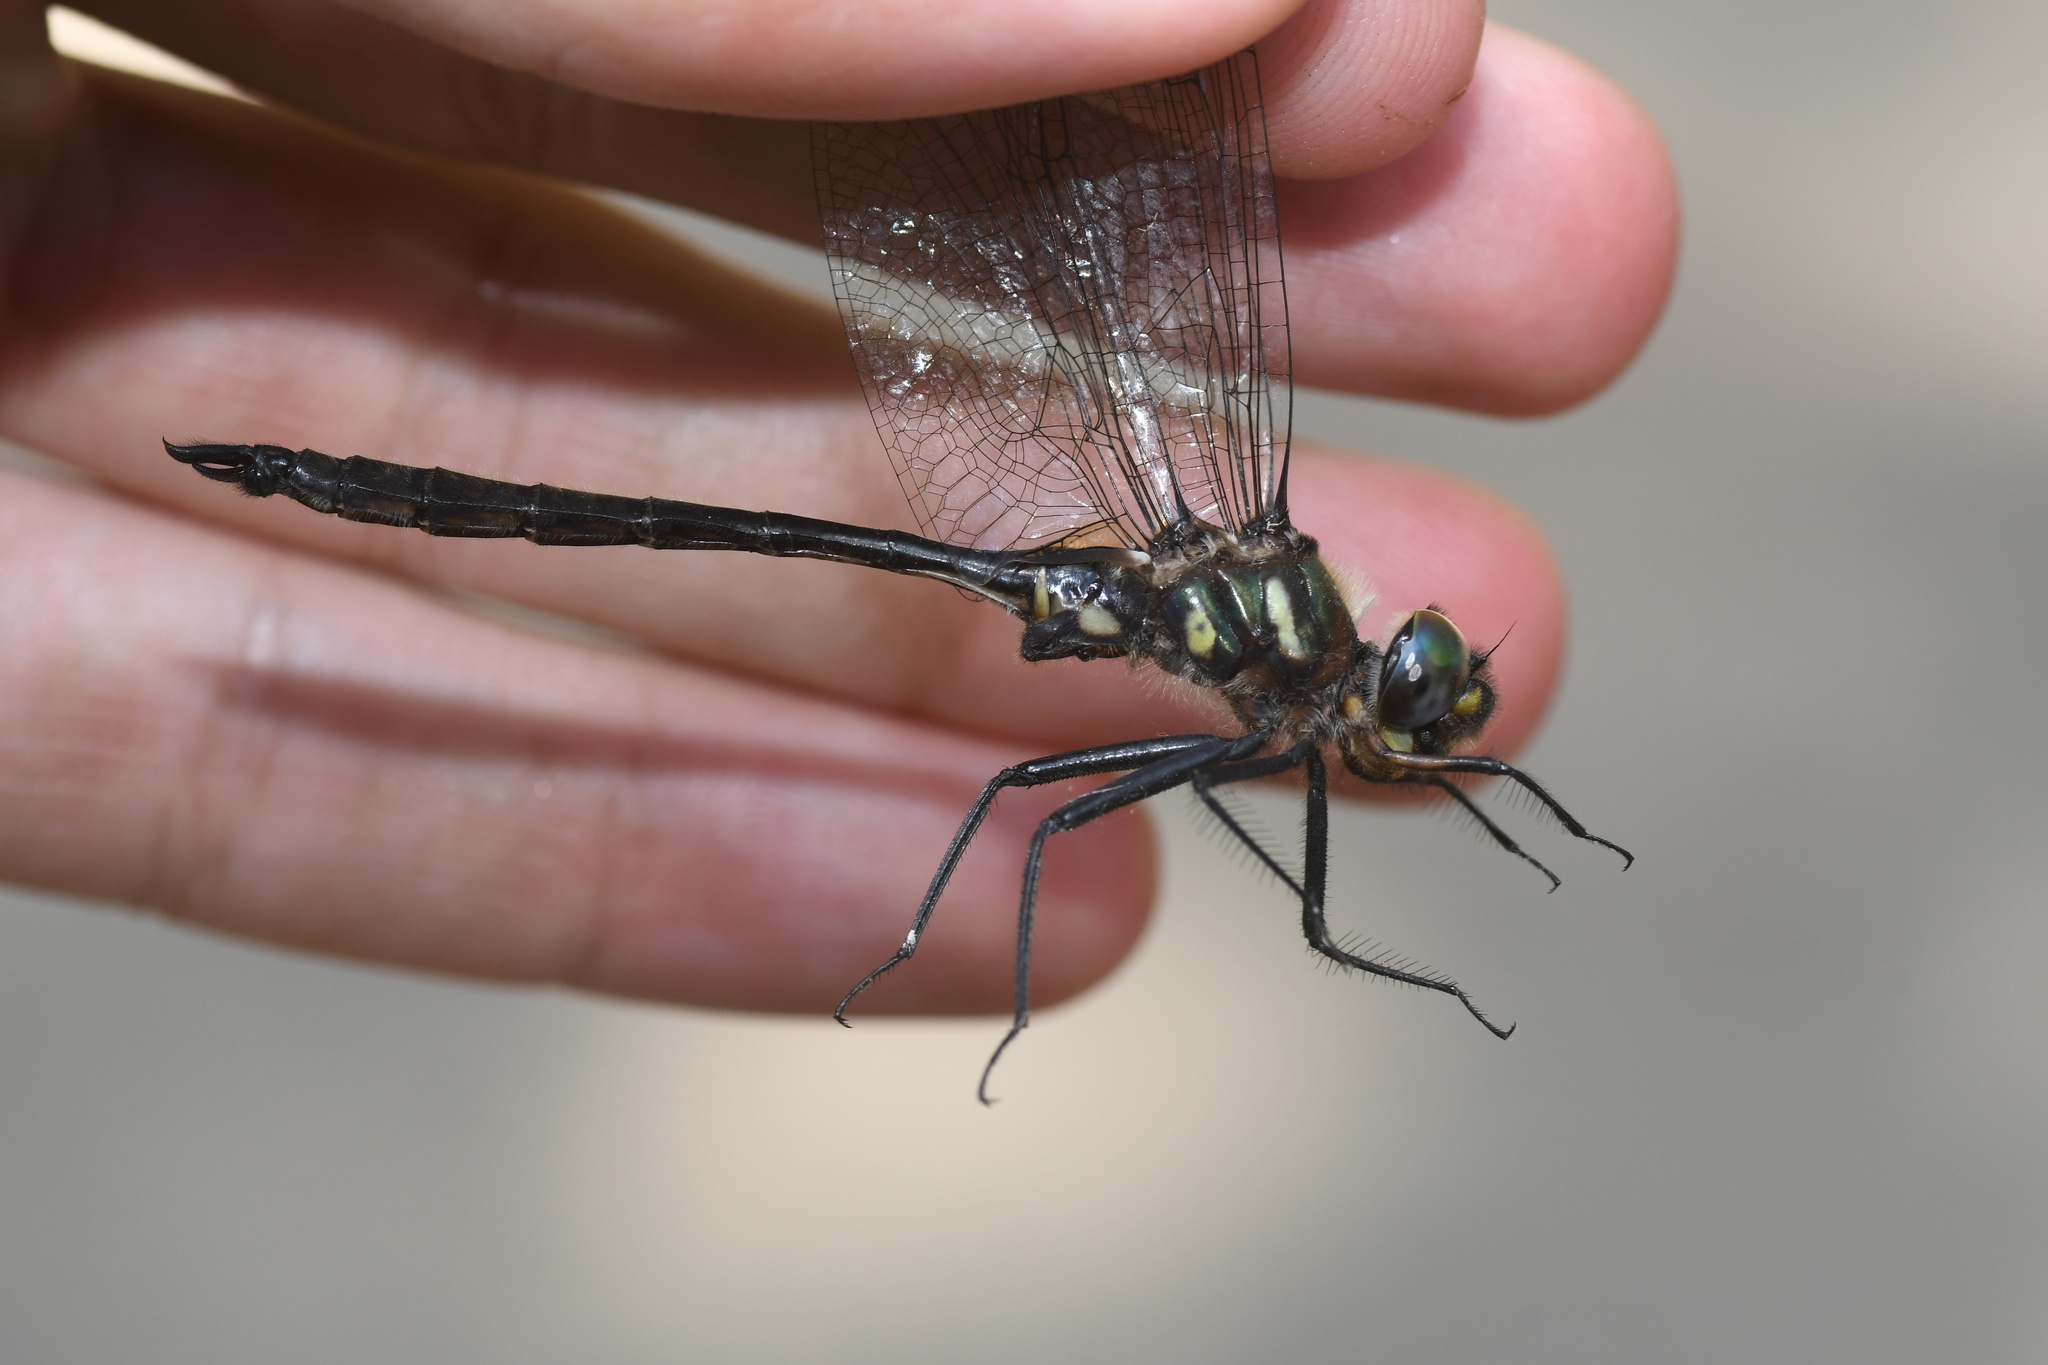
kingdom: Animalia
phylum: Arthropoda
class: Insecta
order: Odonata
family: Corduliidae
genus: Somatochlora
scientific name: Somatochlora elongata
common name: Ski-tipped emerald
